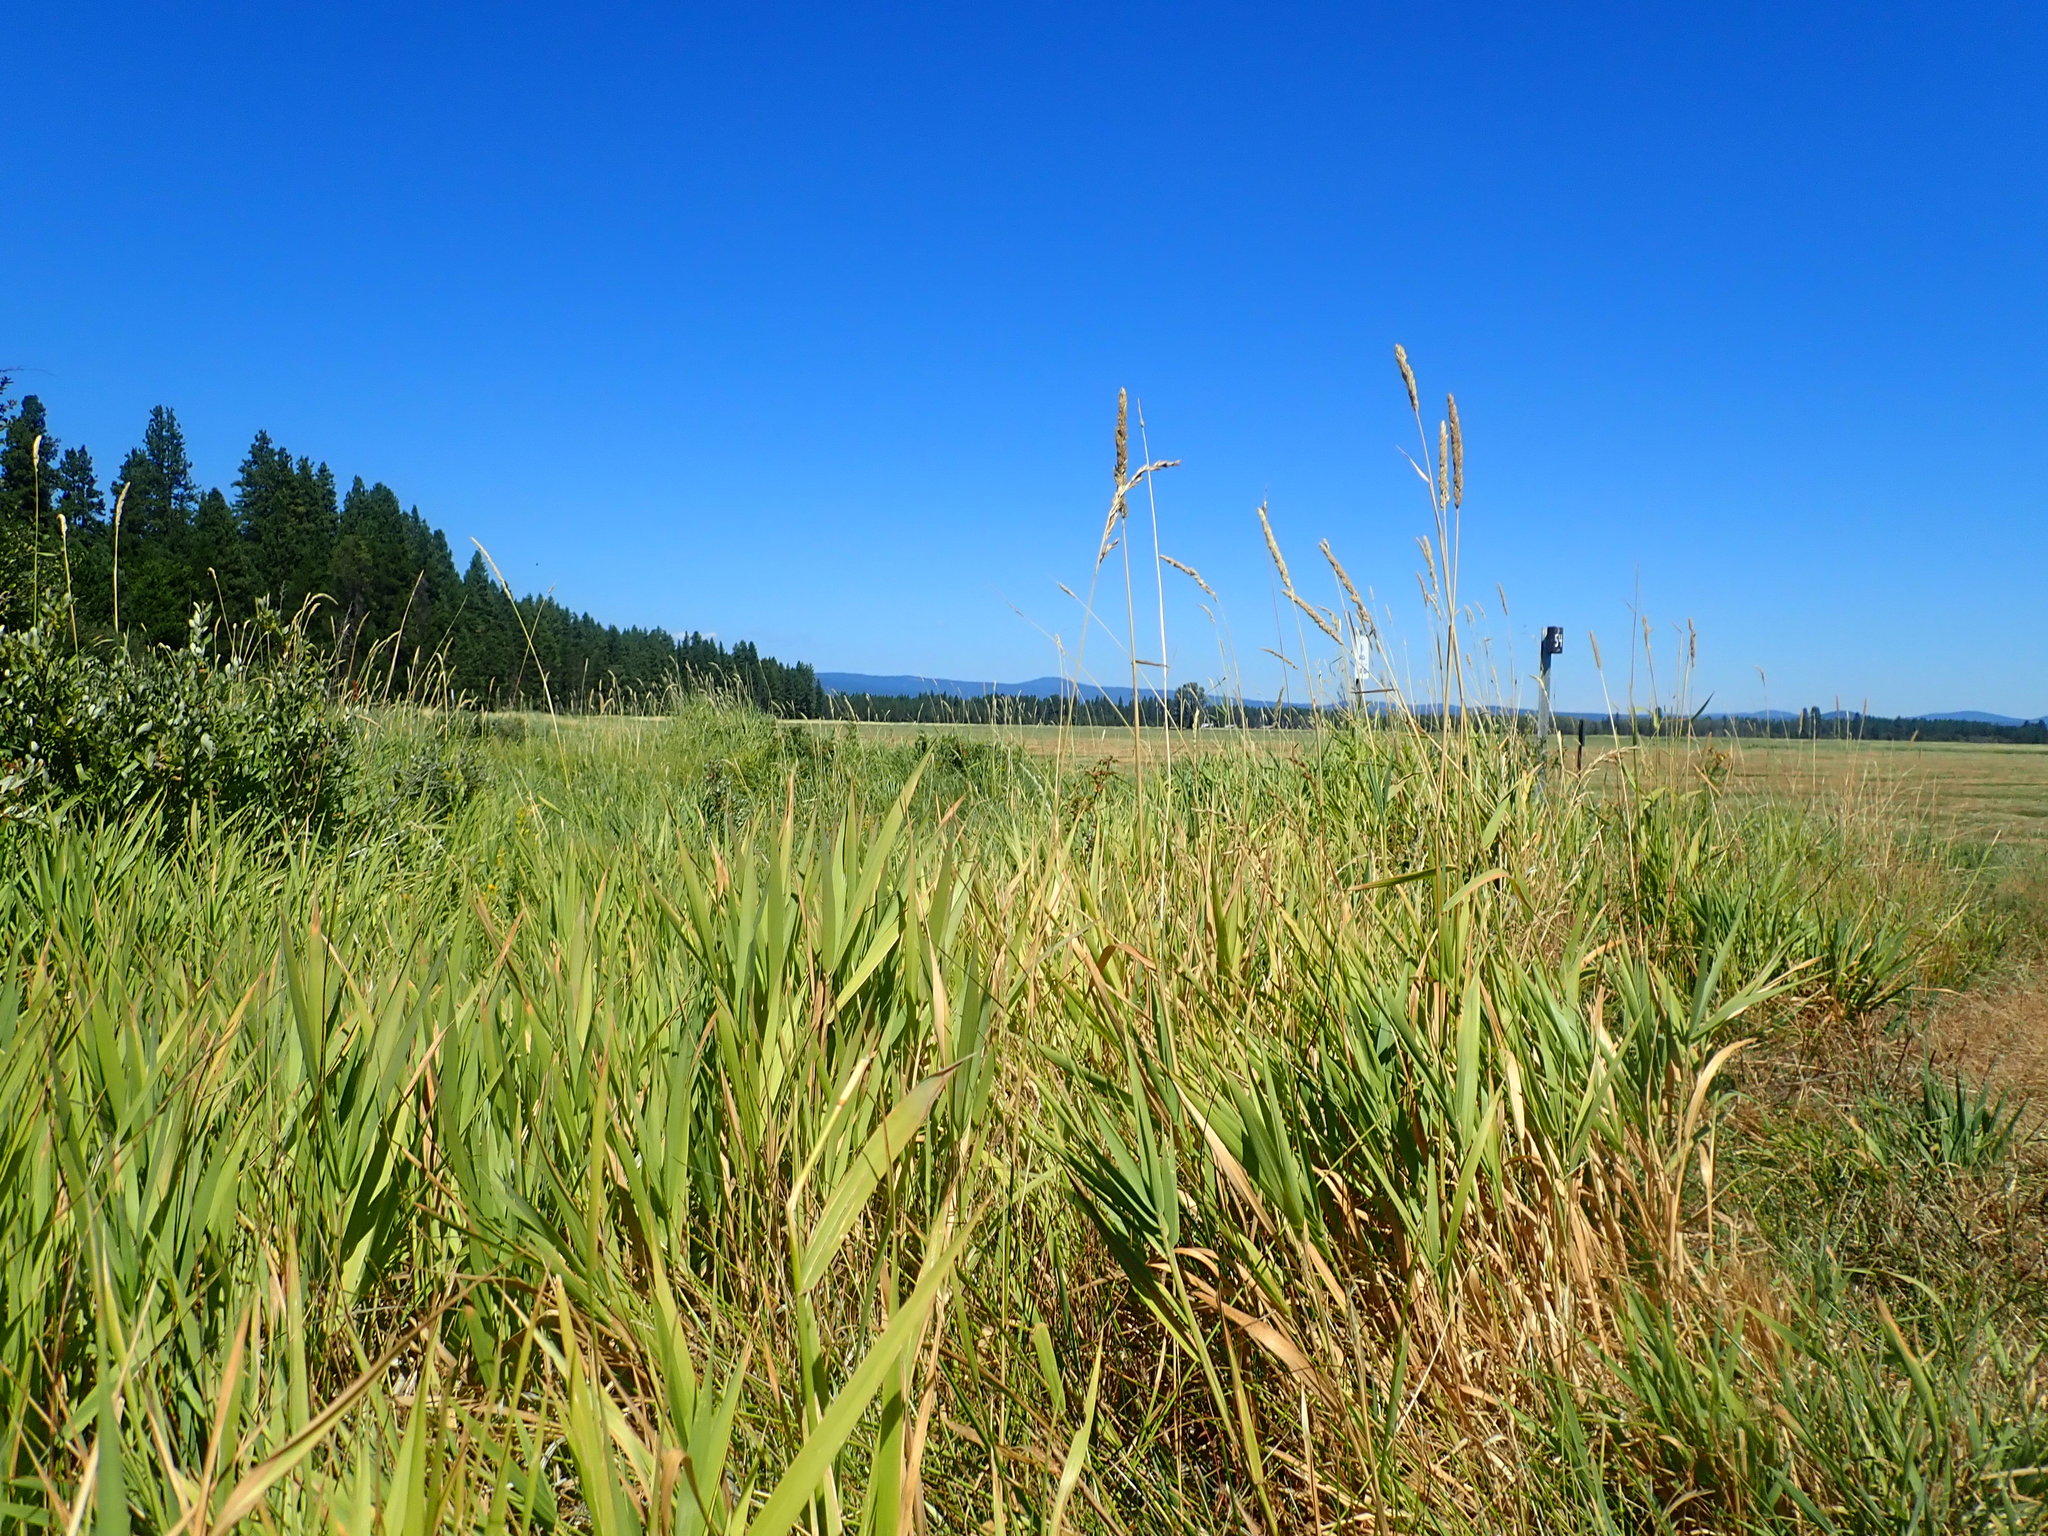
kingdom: Plantae
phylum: Tracheophyta
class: Liliopsida
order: Poales
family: Poaceae
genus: Phalaris
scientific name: Phalaris arundinacea
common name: Reed canary-grass
